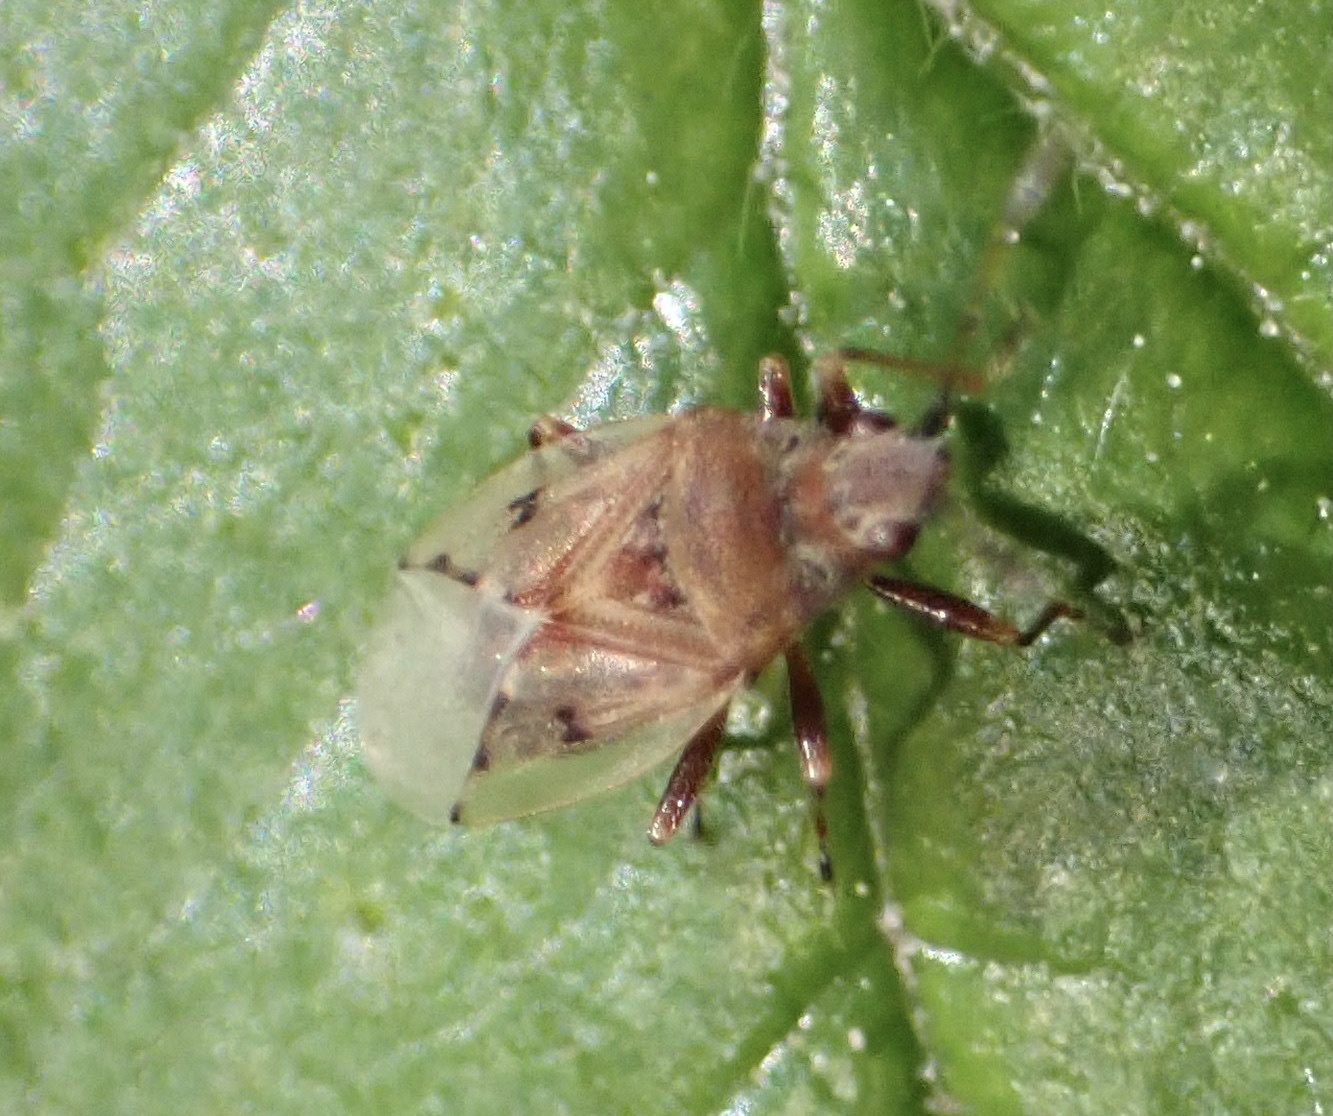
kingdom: Animalia
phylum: Arthropoda
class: Insecta
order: Hemiptera
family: Lygaeidae
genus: Kleidocerys
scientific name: Kleidocerys resedae
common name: Birch catkin bug
